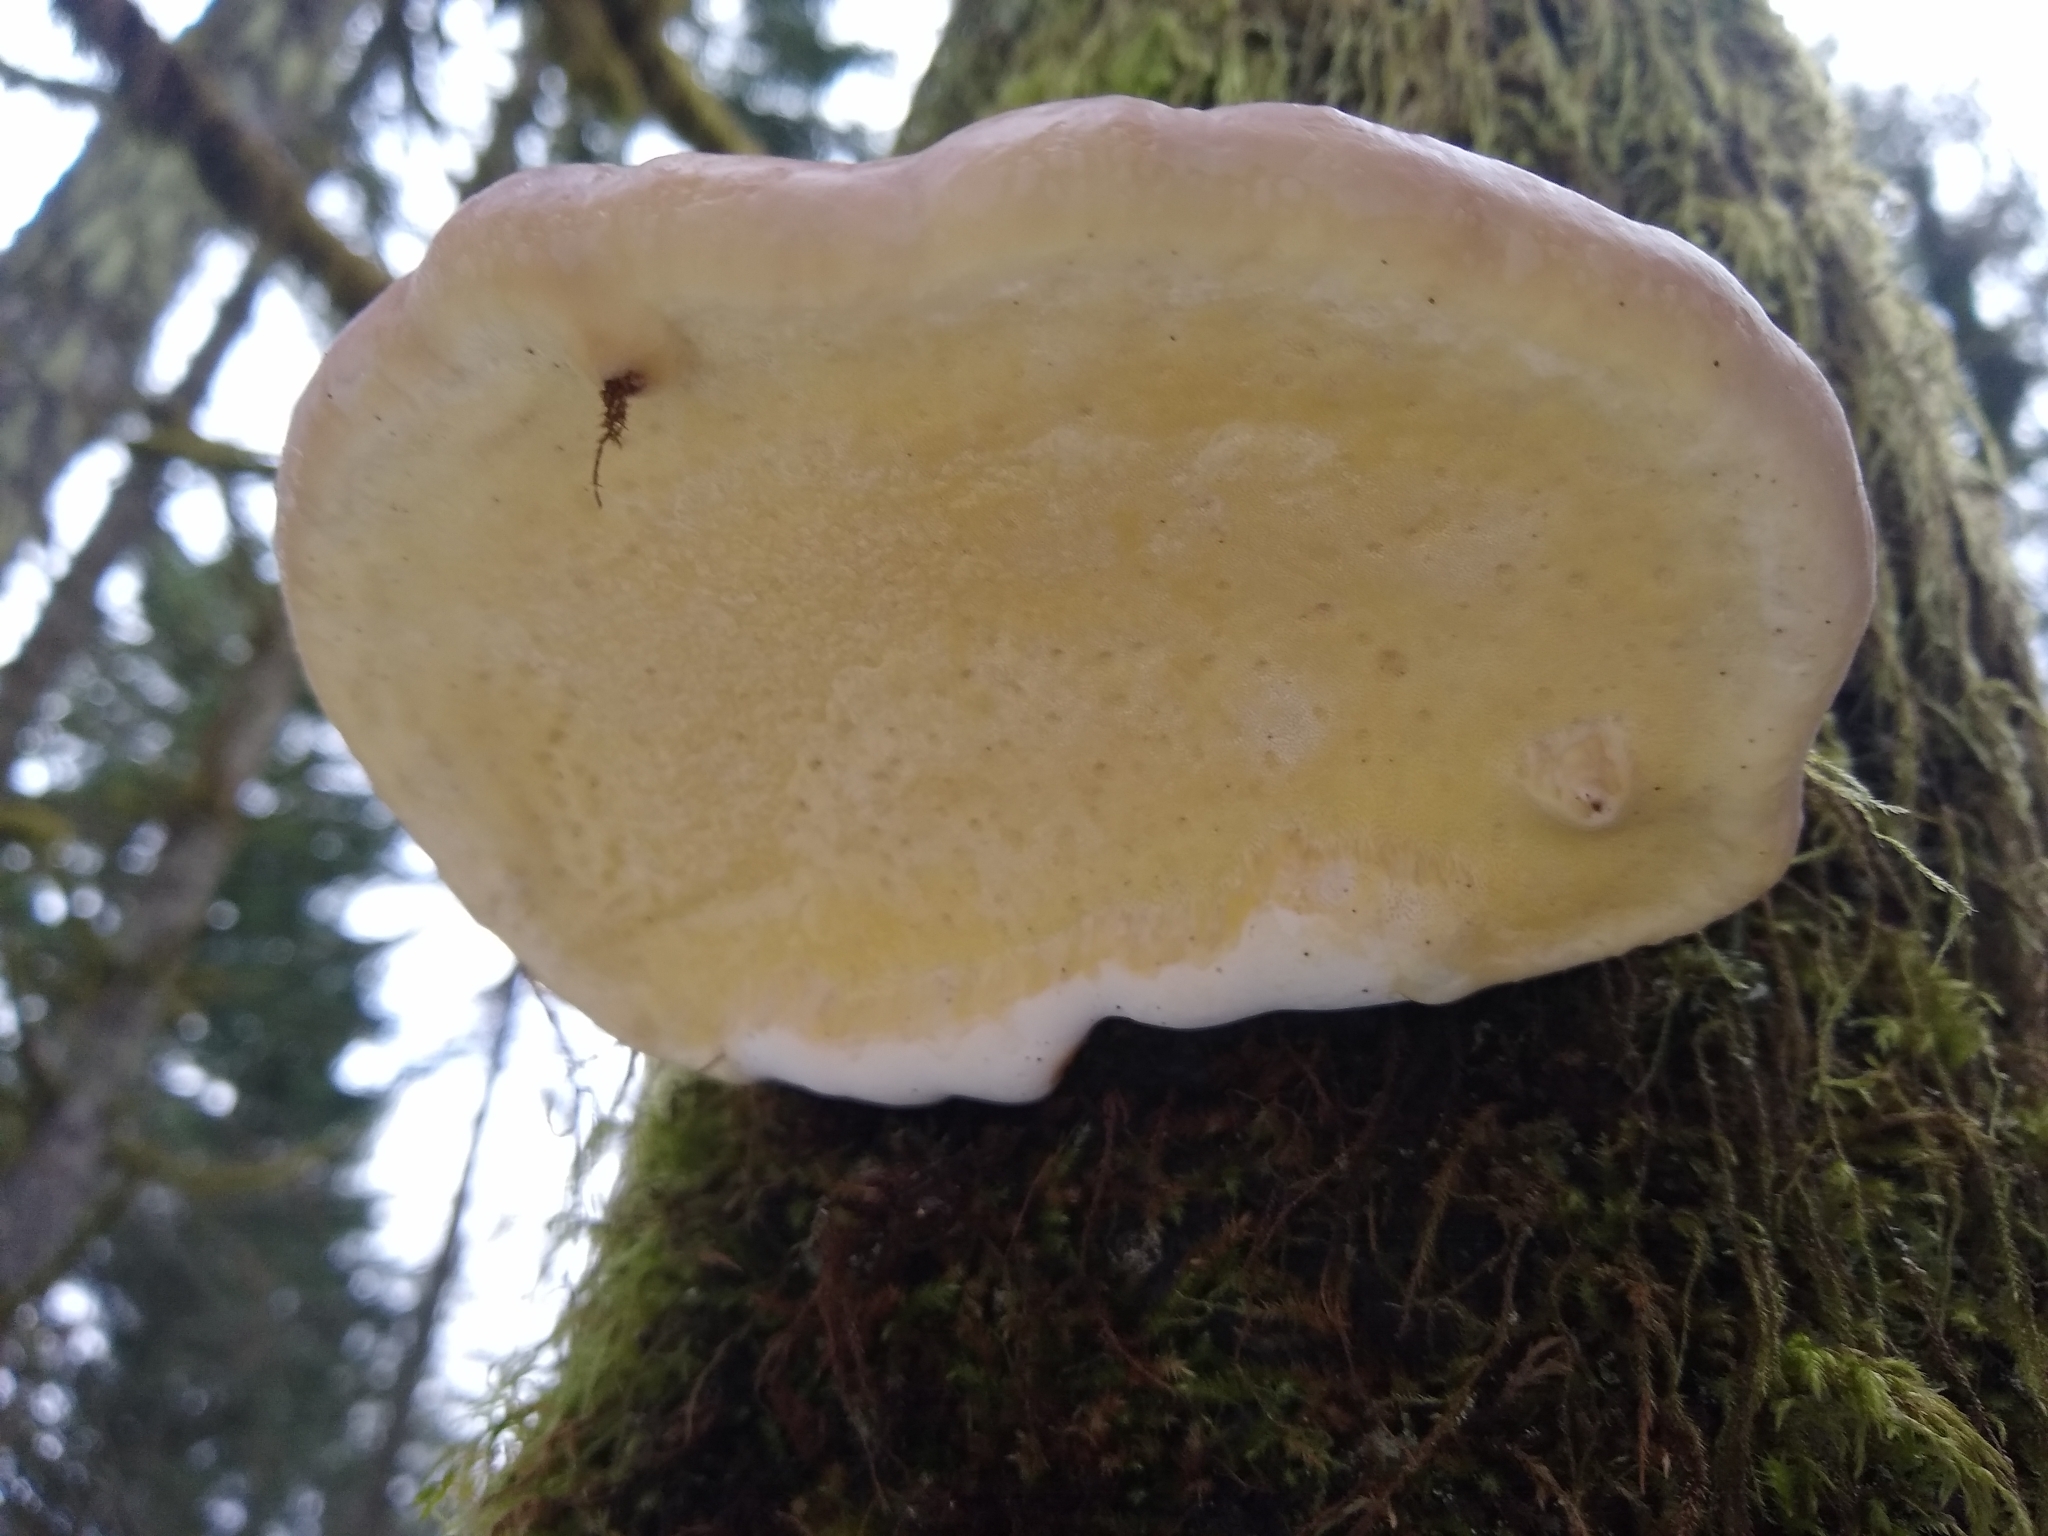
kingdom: Fungi
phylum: Basidiomycota
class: Agaricomycetes
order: Polyporales
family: Fomitopsidaceae
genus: Fomitopsis
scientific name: Fomitopsis mounceae
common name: Northern red belt
